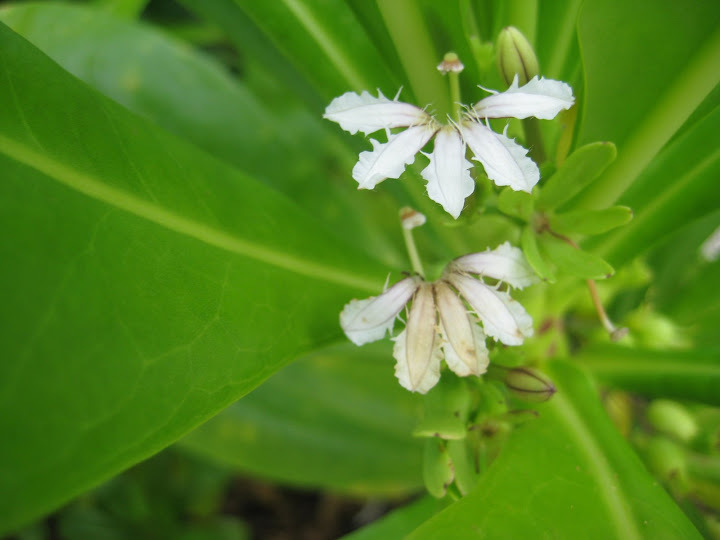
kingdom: Plantae
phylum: Tracheophyta
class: Magnoliopsida
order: Asterales
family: Goodeniaceae
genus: Scaevola
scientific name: Scaevola taccada
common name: Sea lettucetree
